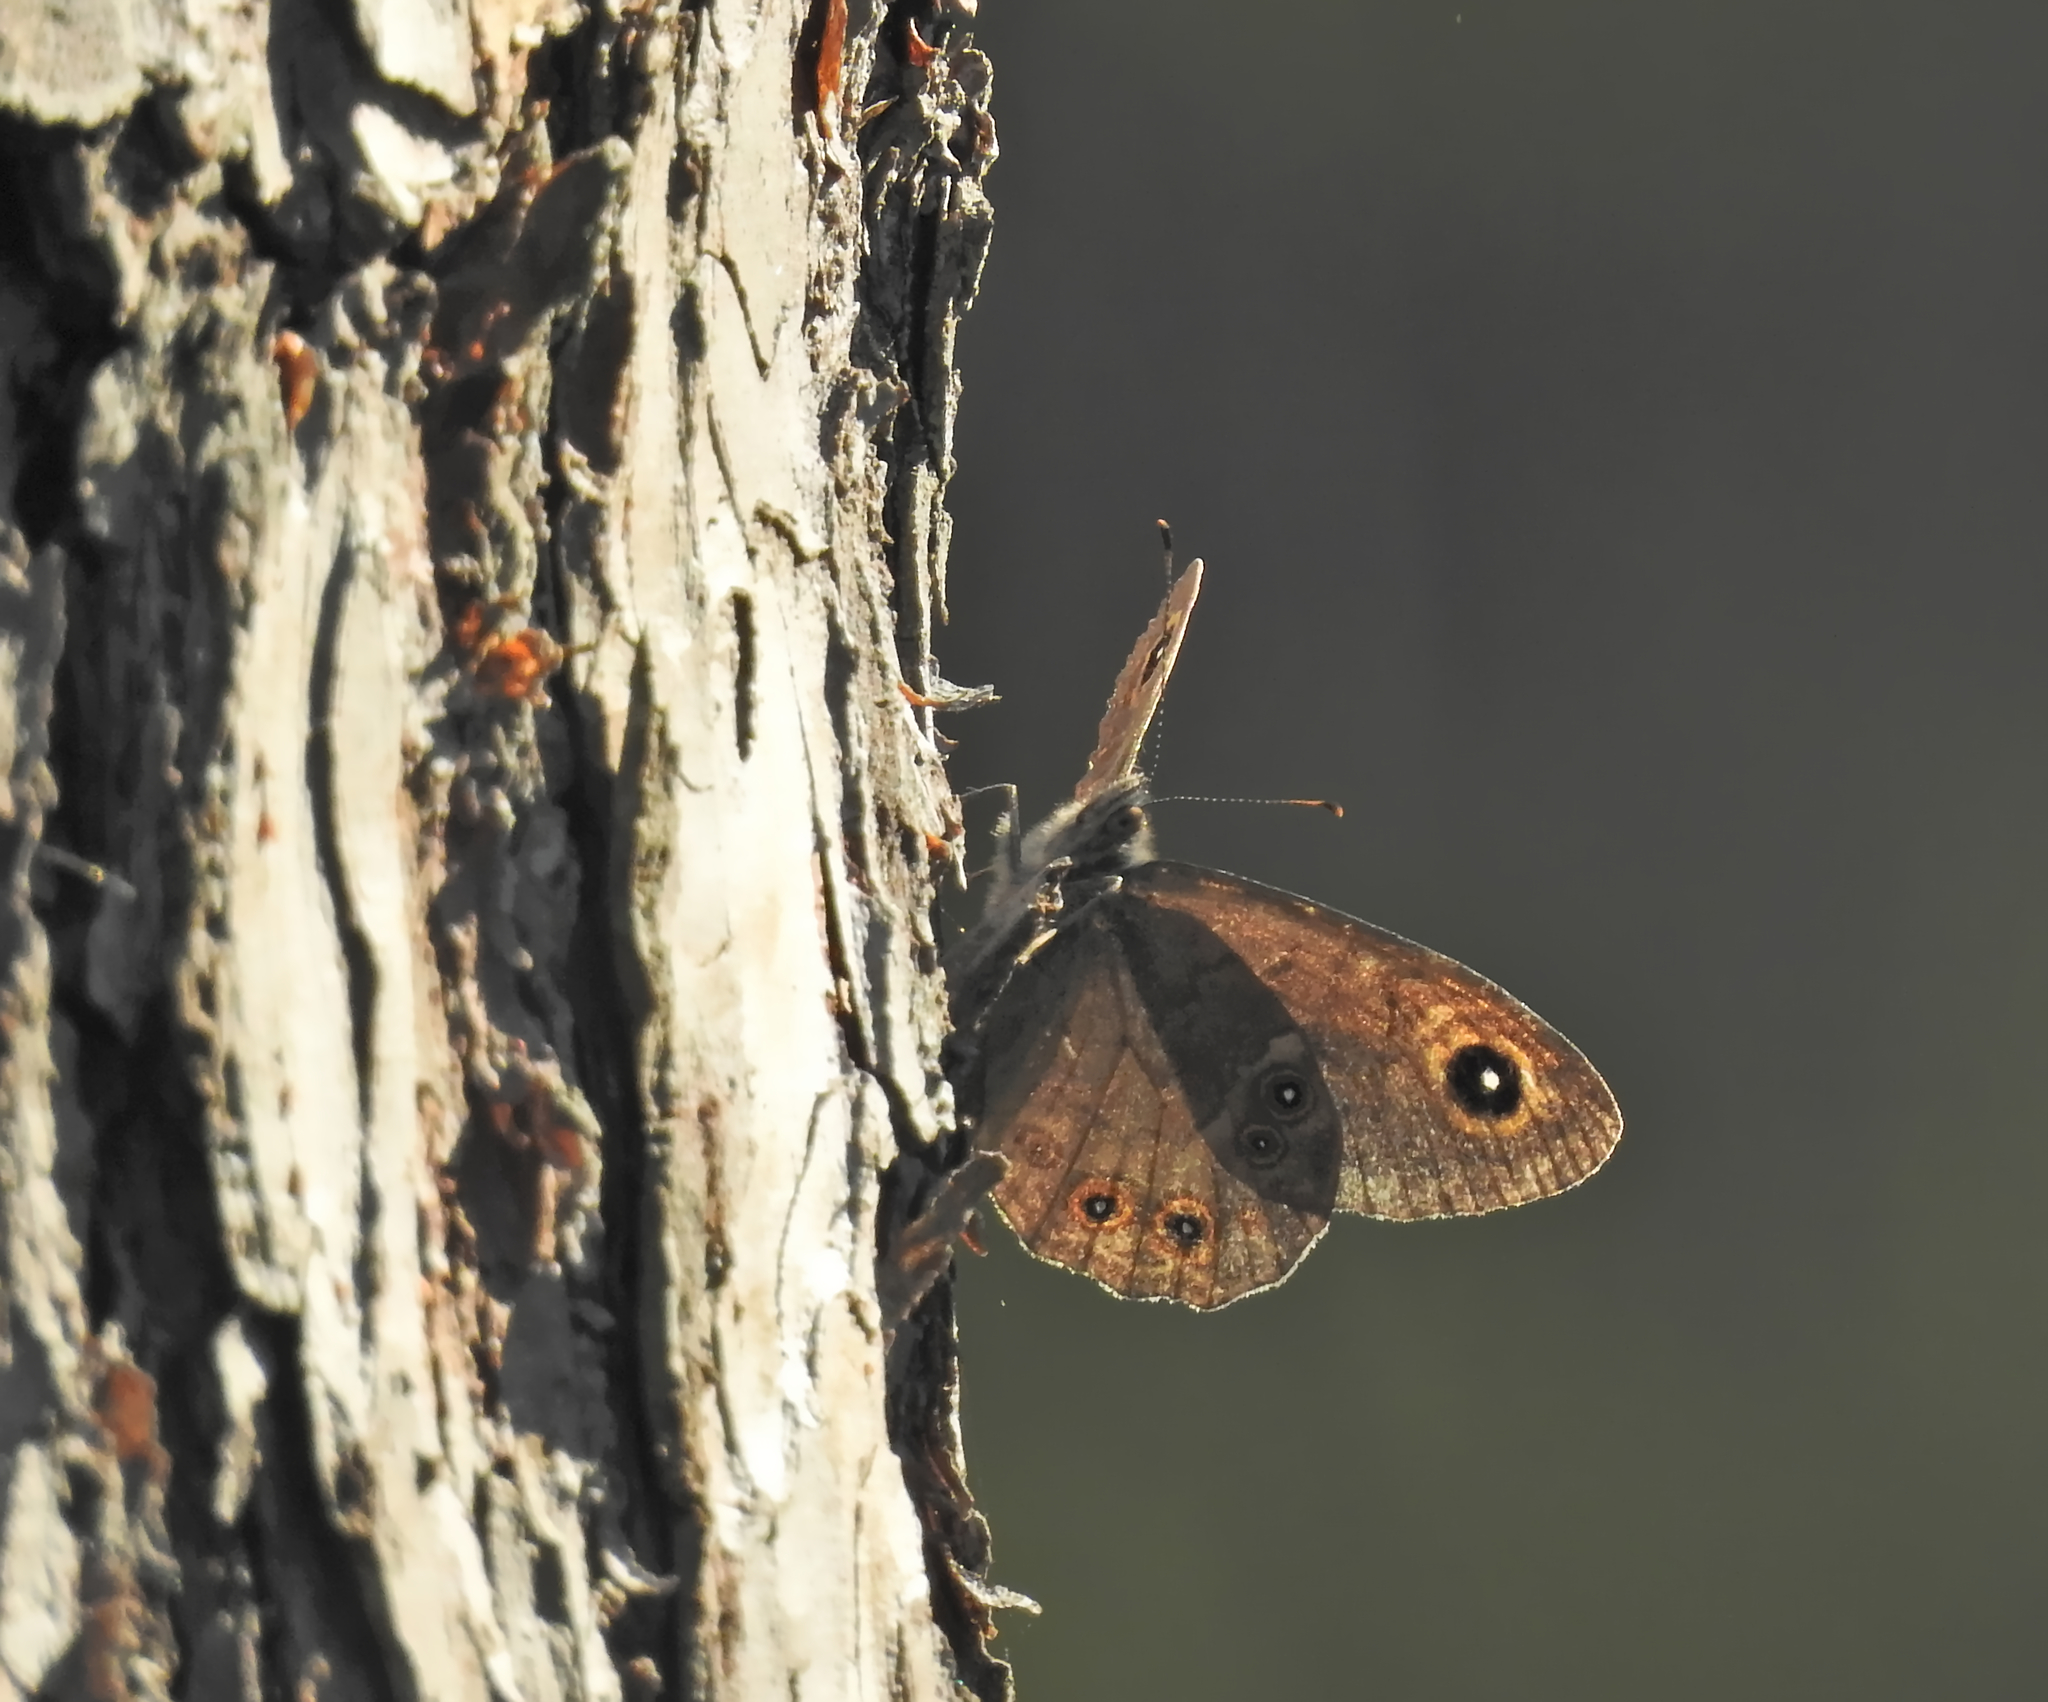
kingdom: Animalia
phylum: Arthropoda
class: Insecta
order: Lepidoptera
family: Nymphalidae
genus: Pararge
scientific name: Pararge Lasiommata maera
